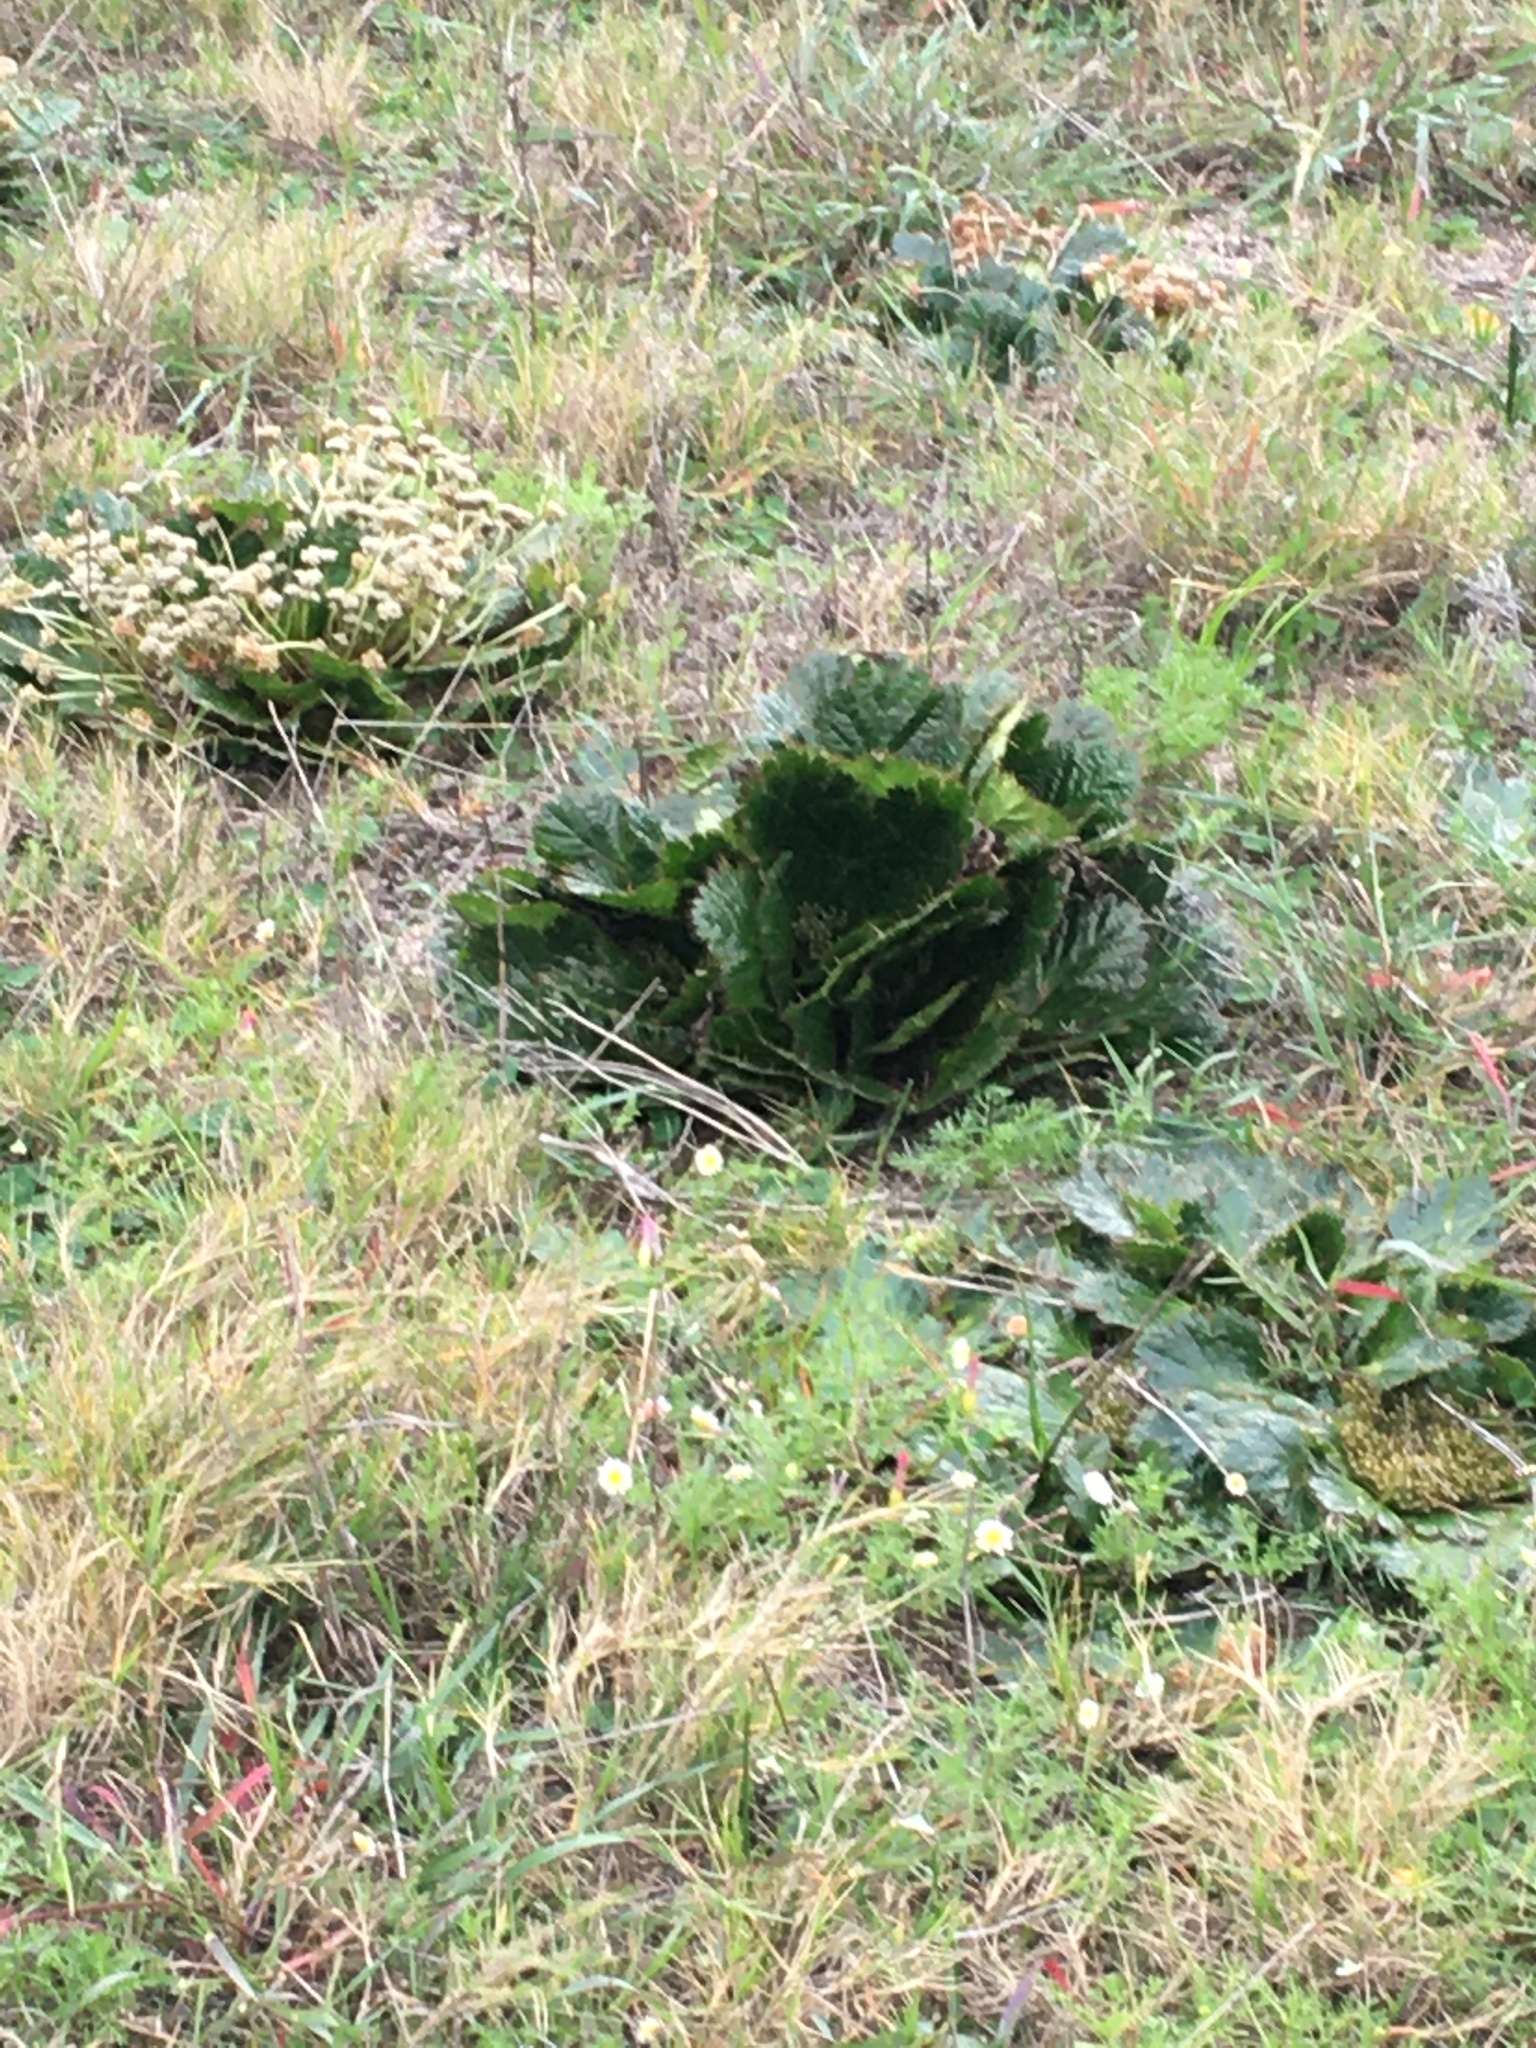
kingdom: Plantae
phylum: Tracheophyta
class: Magnoliopsida
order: Apiales
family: Apiaceae
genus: Arctopus
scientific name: Arctopus echinatus
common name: Platdoring
